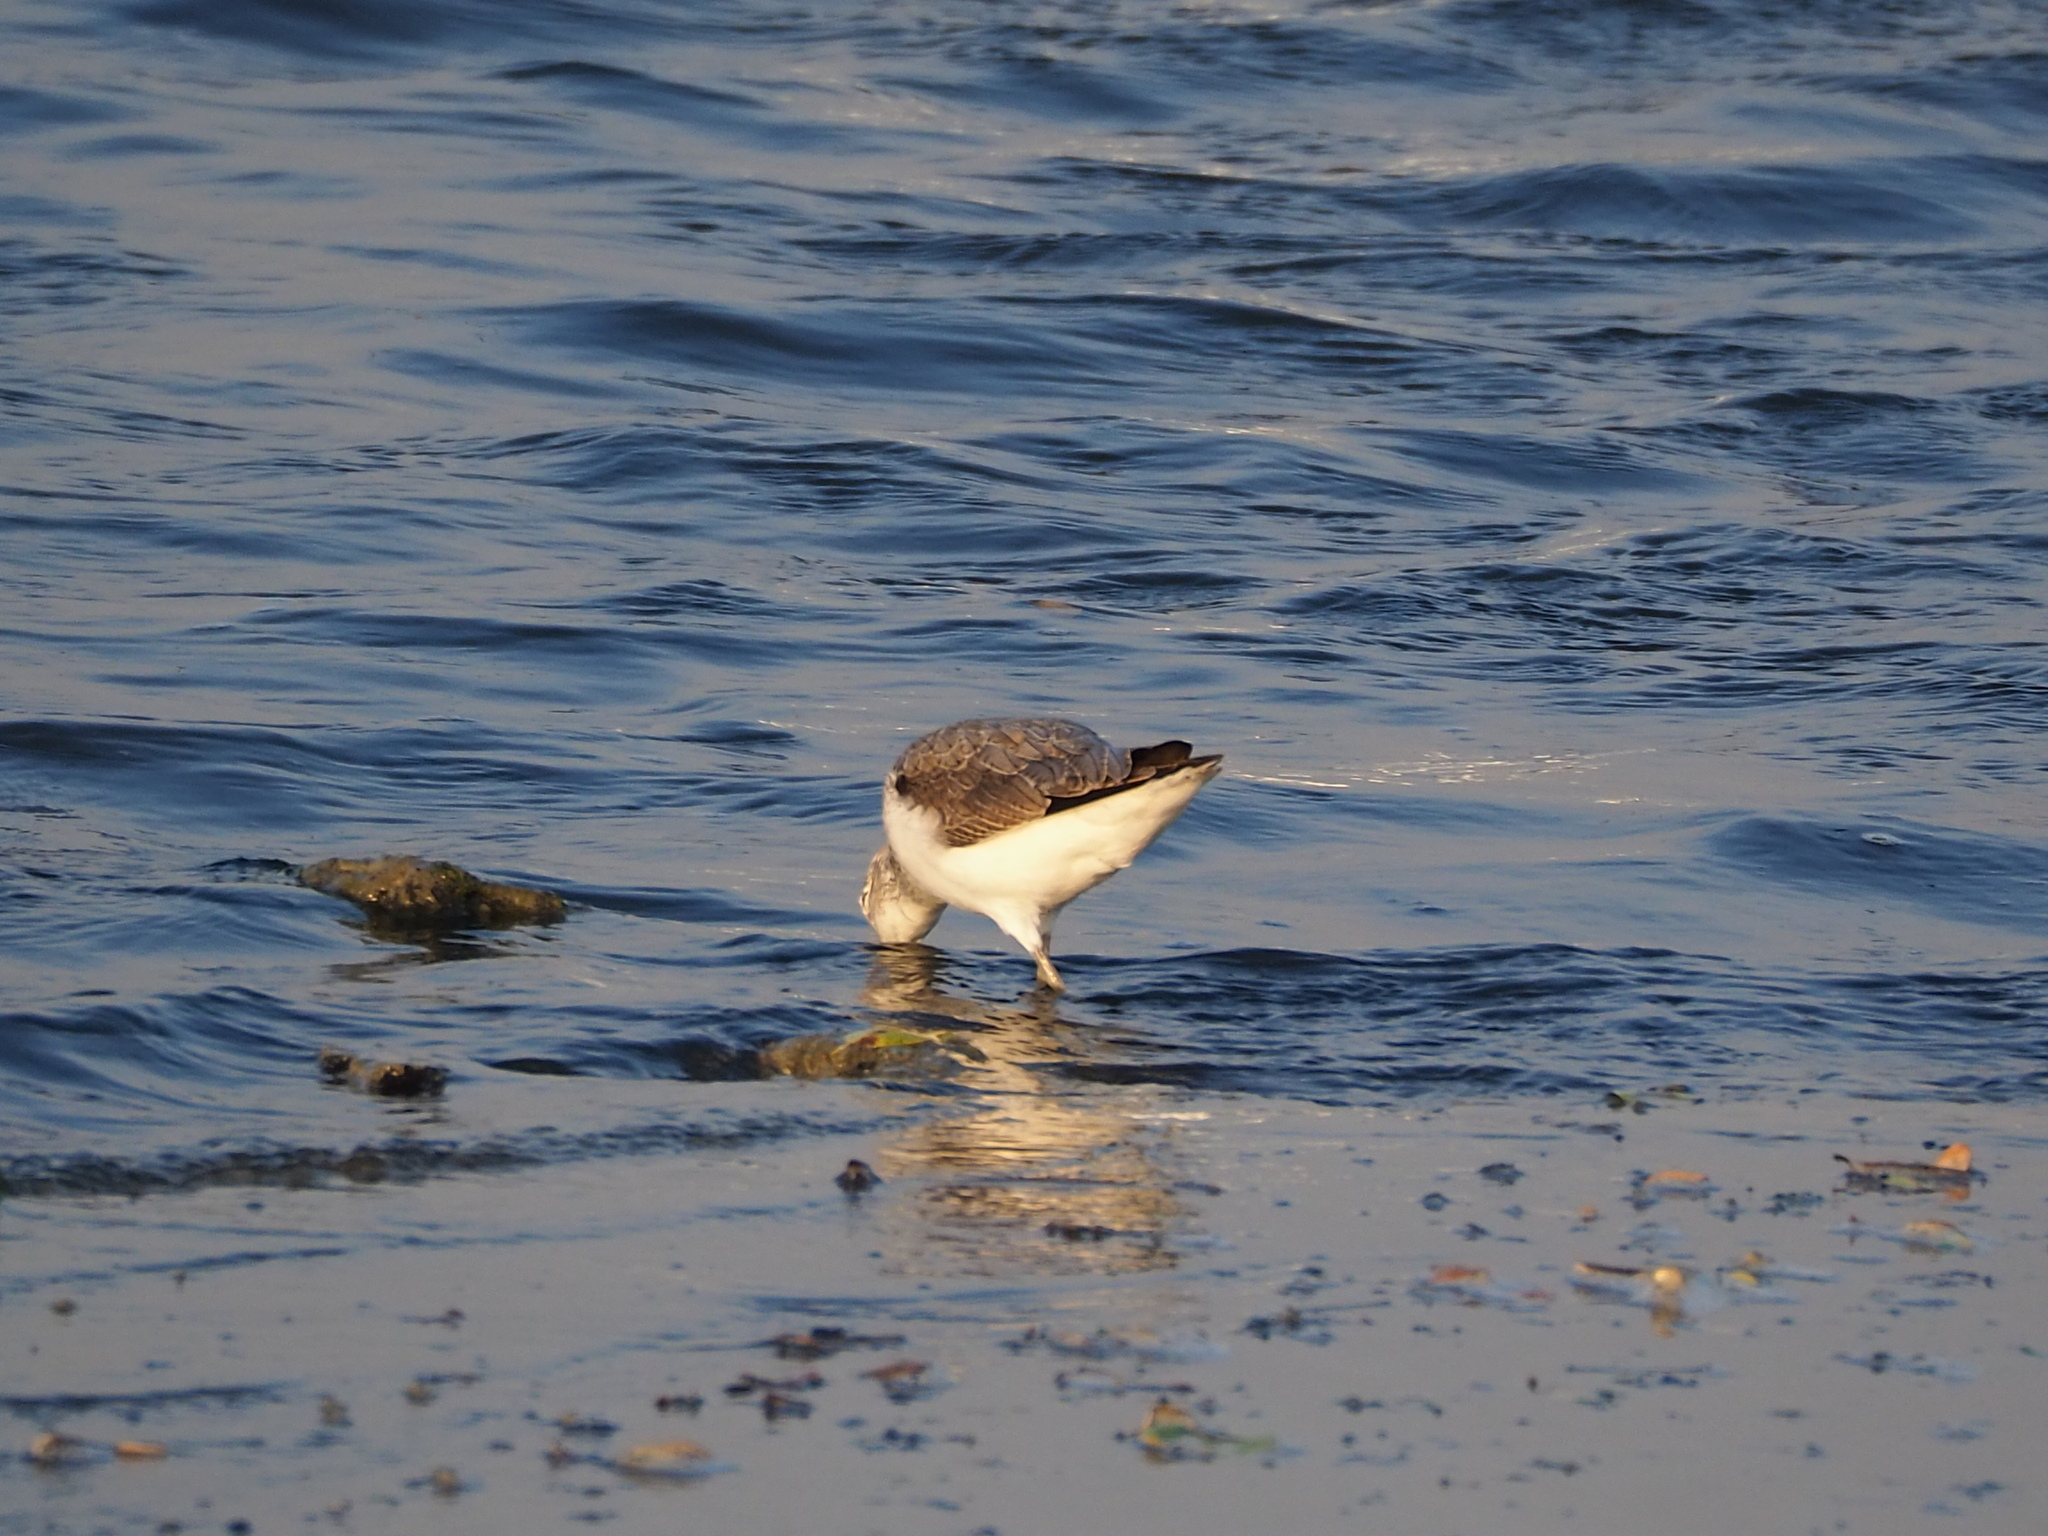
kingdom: Animalia
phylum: Chordata
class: Aves
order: Charadriiformes
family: Scolopacidae
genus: Tringa
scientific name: Tringa nebularia
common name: Common greenshank
